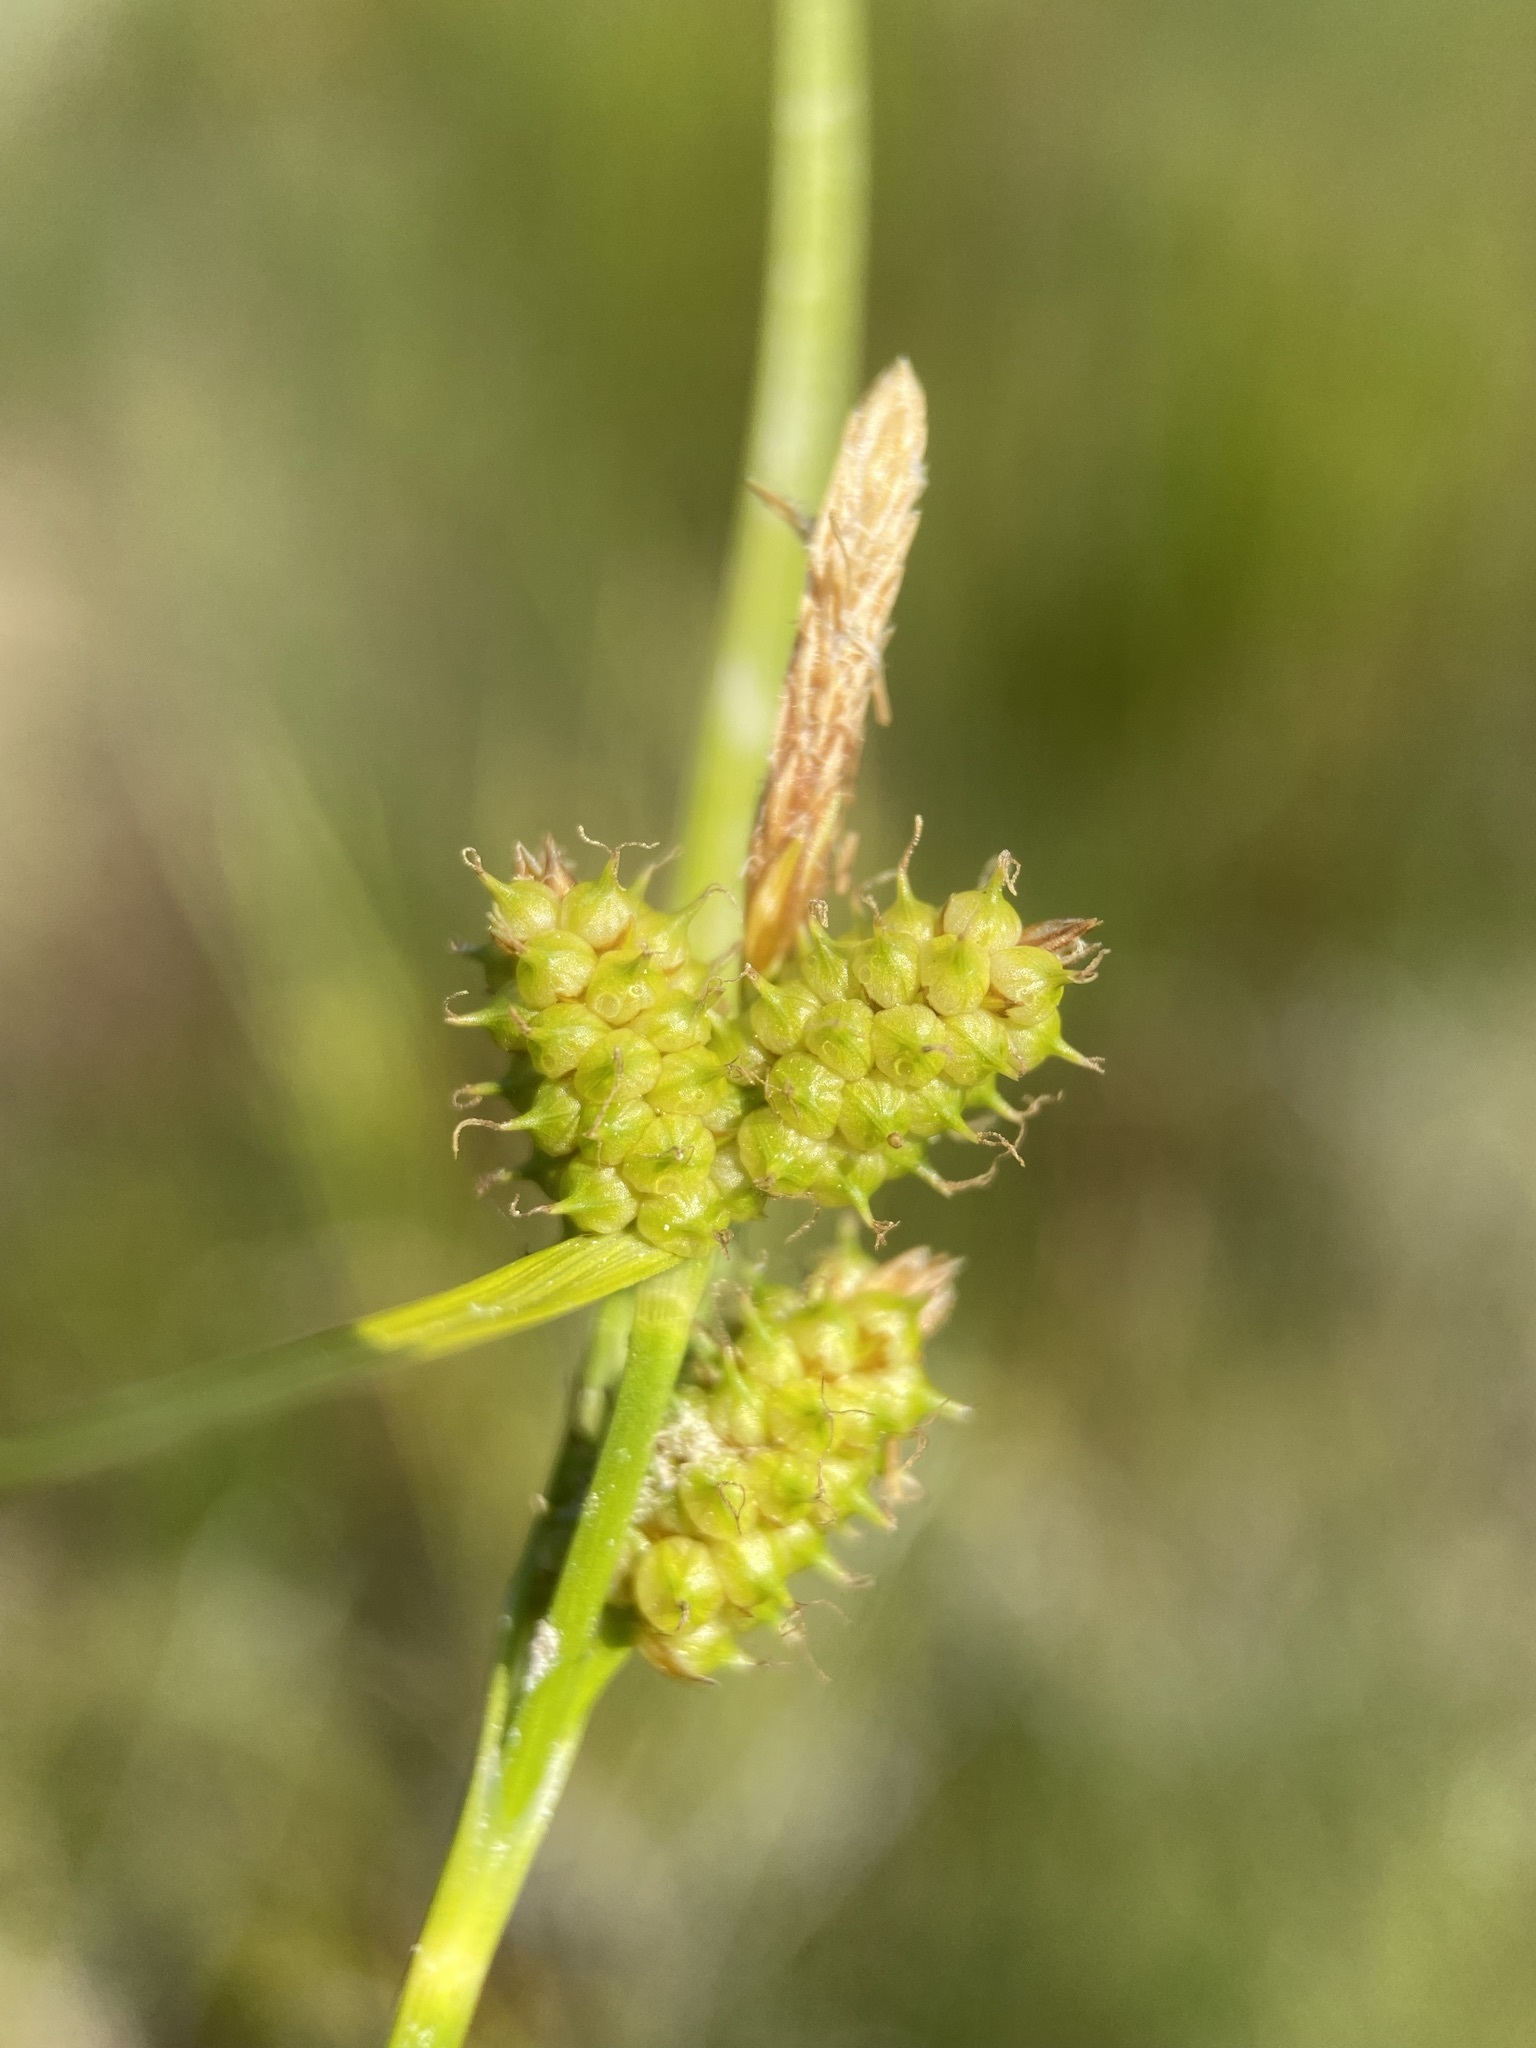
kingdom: Plantae
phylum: Tracheophyta
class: Liliopsida
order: Poales
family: Cyperaceae
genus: Carex
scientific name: Carex
